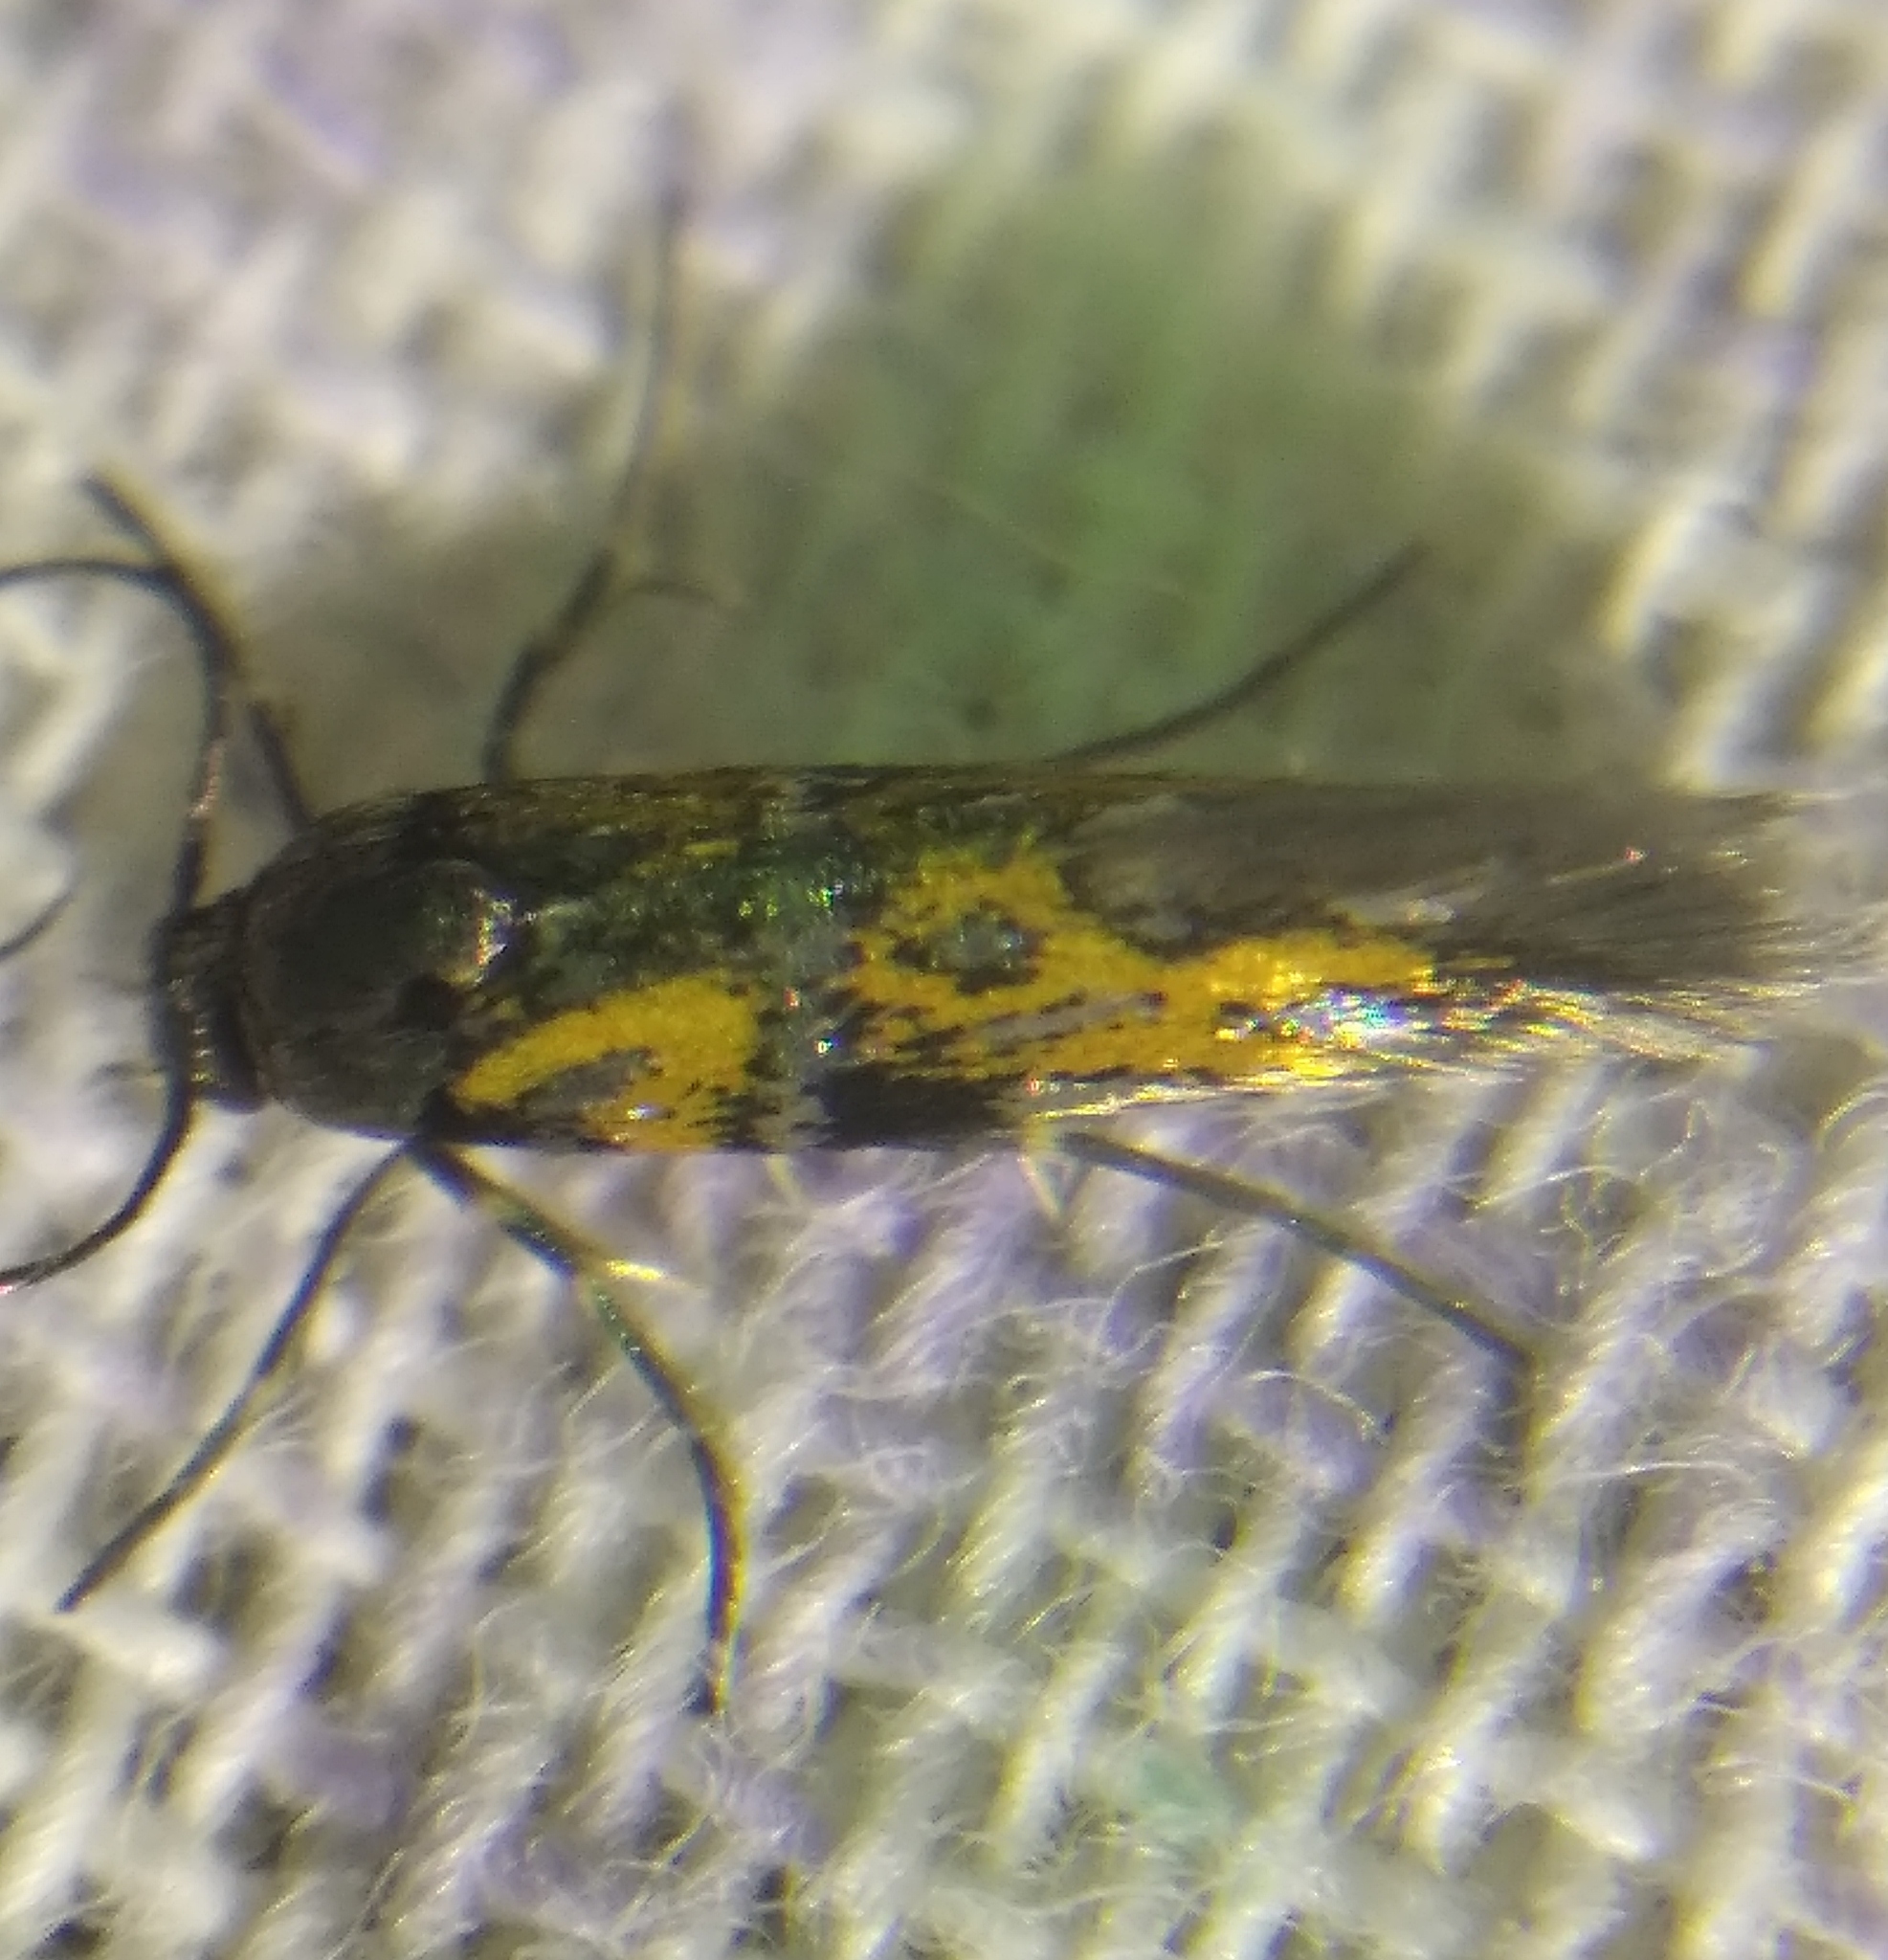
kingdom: Animalia
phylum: Arthropoda
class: Insecta
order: Lepidoptera
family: Gelechiidae
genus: Chrysoesthia
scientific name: Chrysoesthia drurella
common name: Flame neb
